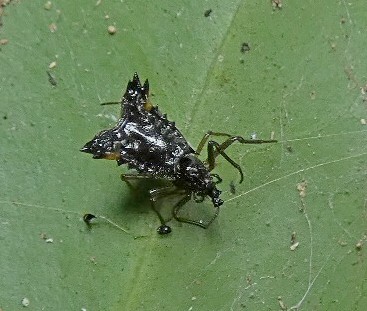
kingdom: Animalia
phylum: Arthropoda
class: Arachnida
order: Araneae
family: Araneidae
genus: Micrathena
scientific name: Micrathena triangularis
